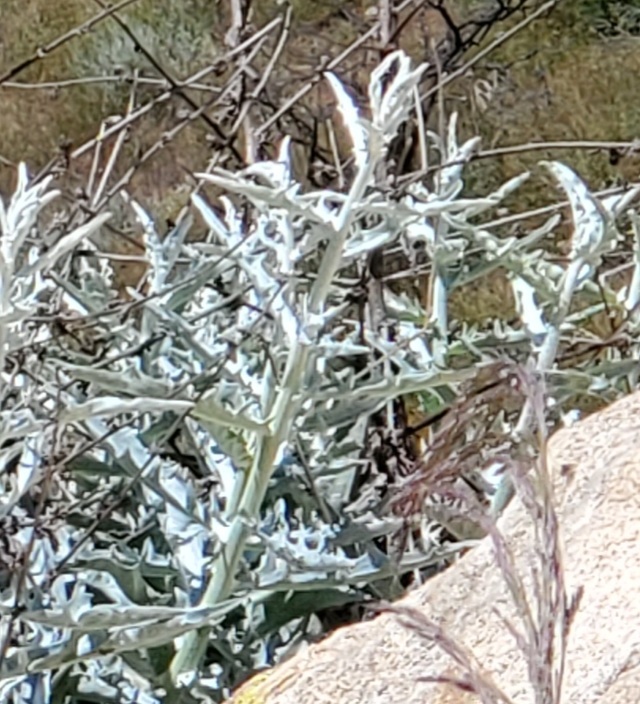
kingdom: Plantae
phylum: Tracheophyta
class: Magnoliopsida
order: Asterales
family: Asteraceae
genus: Stephanomeria
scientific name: Stephanomeria cichoriacea
